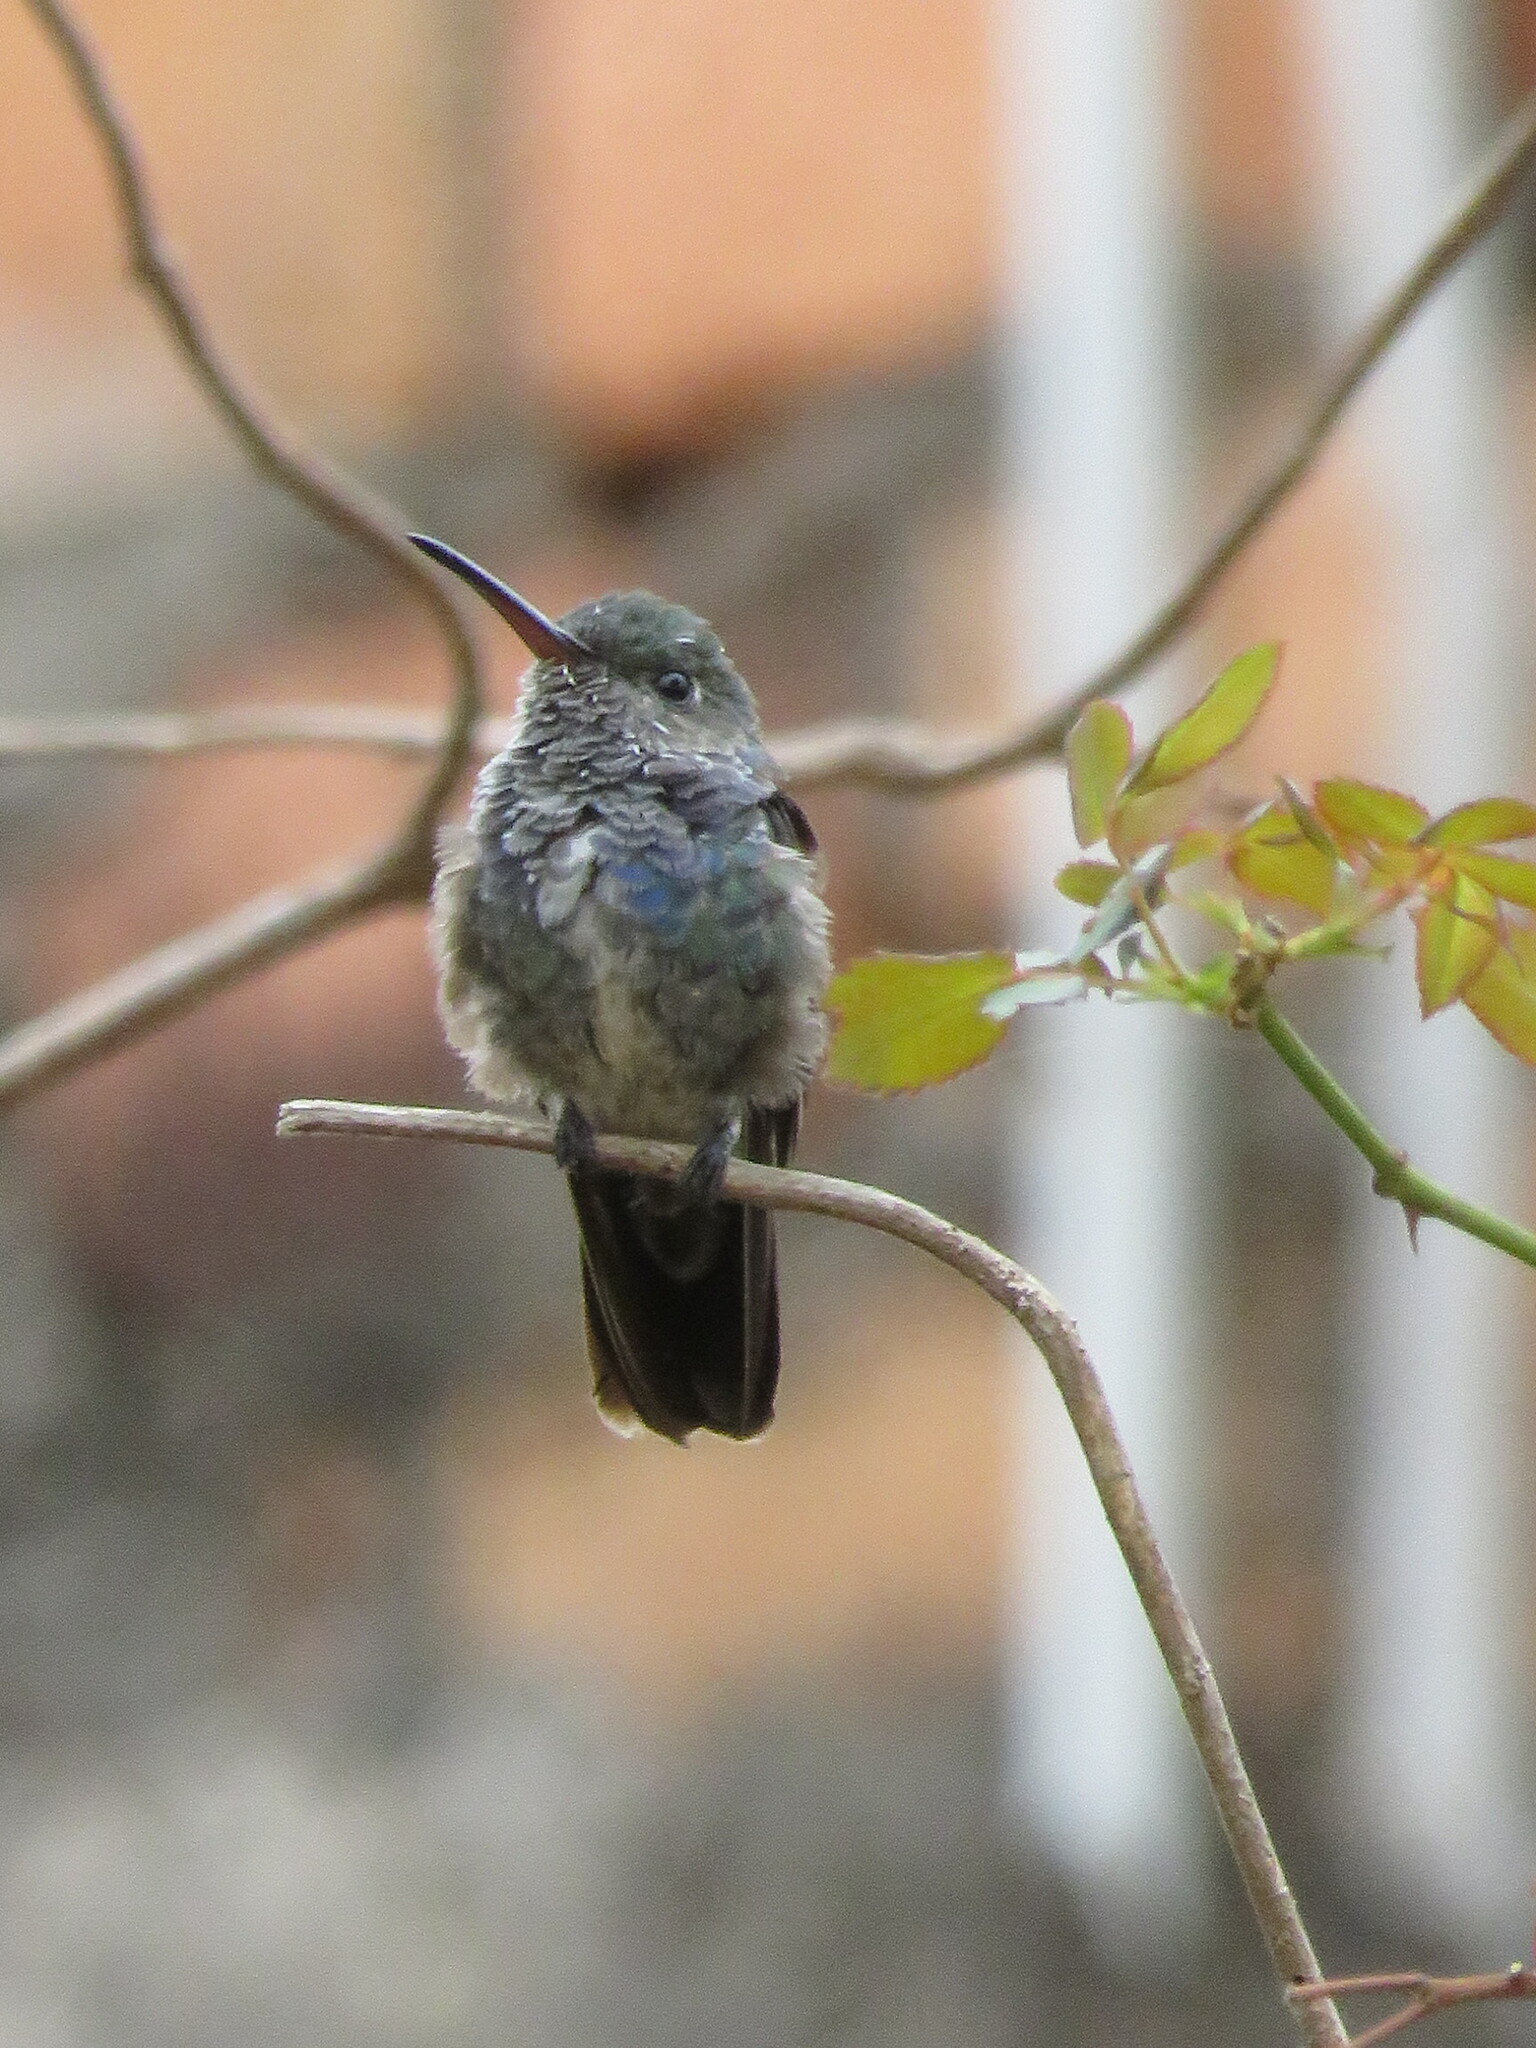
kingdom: Animalia
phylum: Chordata
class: Aves
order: Apodiformes
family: Trochilidae
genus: Chionomesa
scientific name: Chionomesa lactea
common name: Sapphire-spangled emerald
